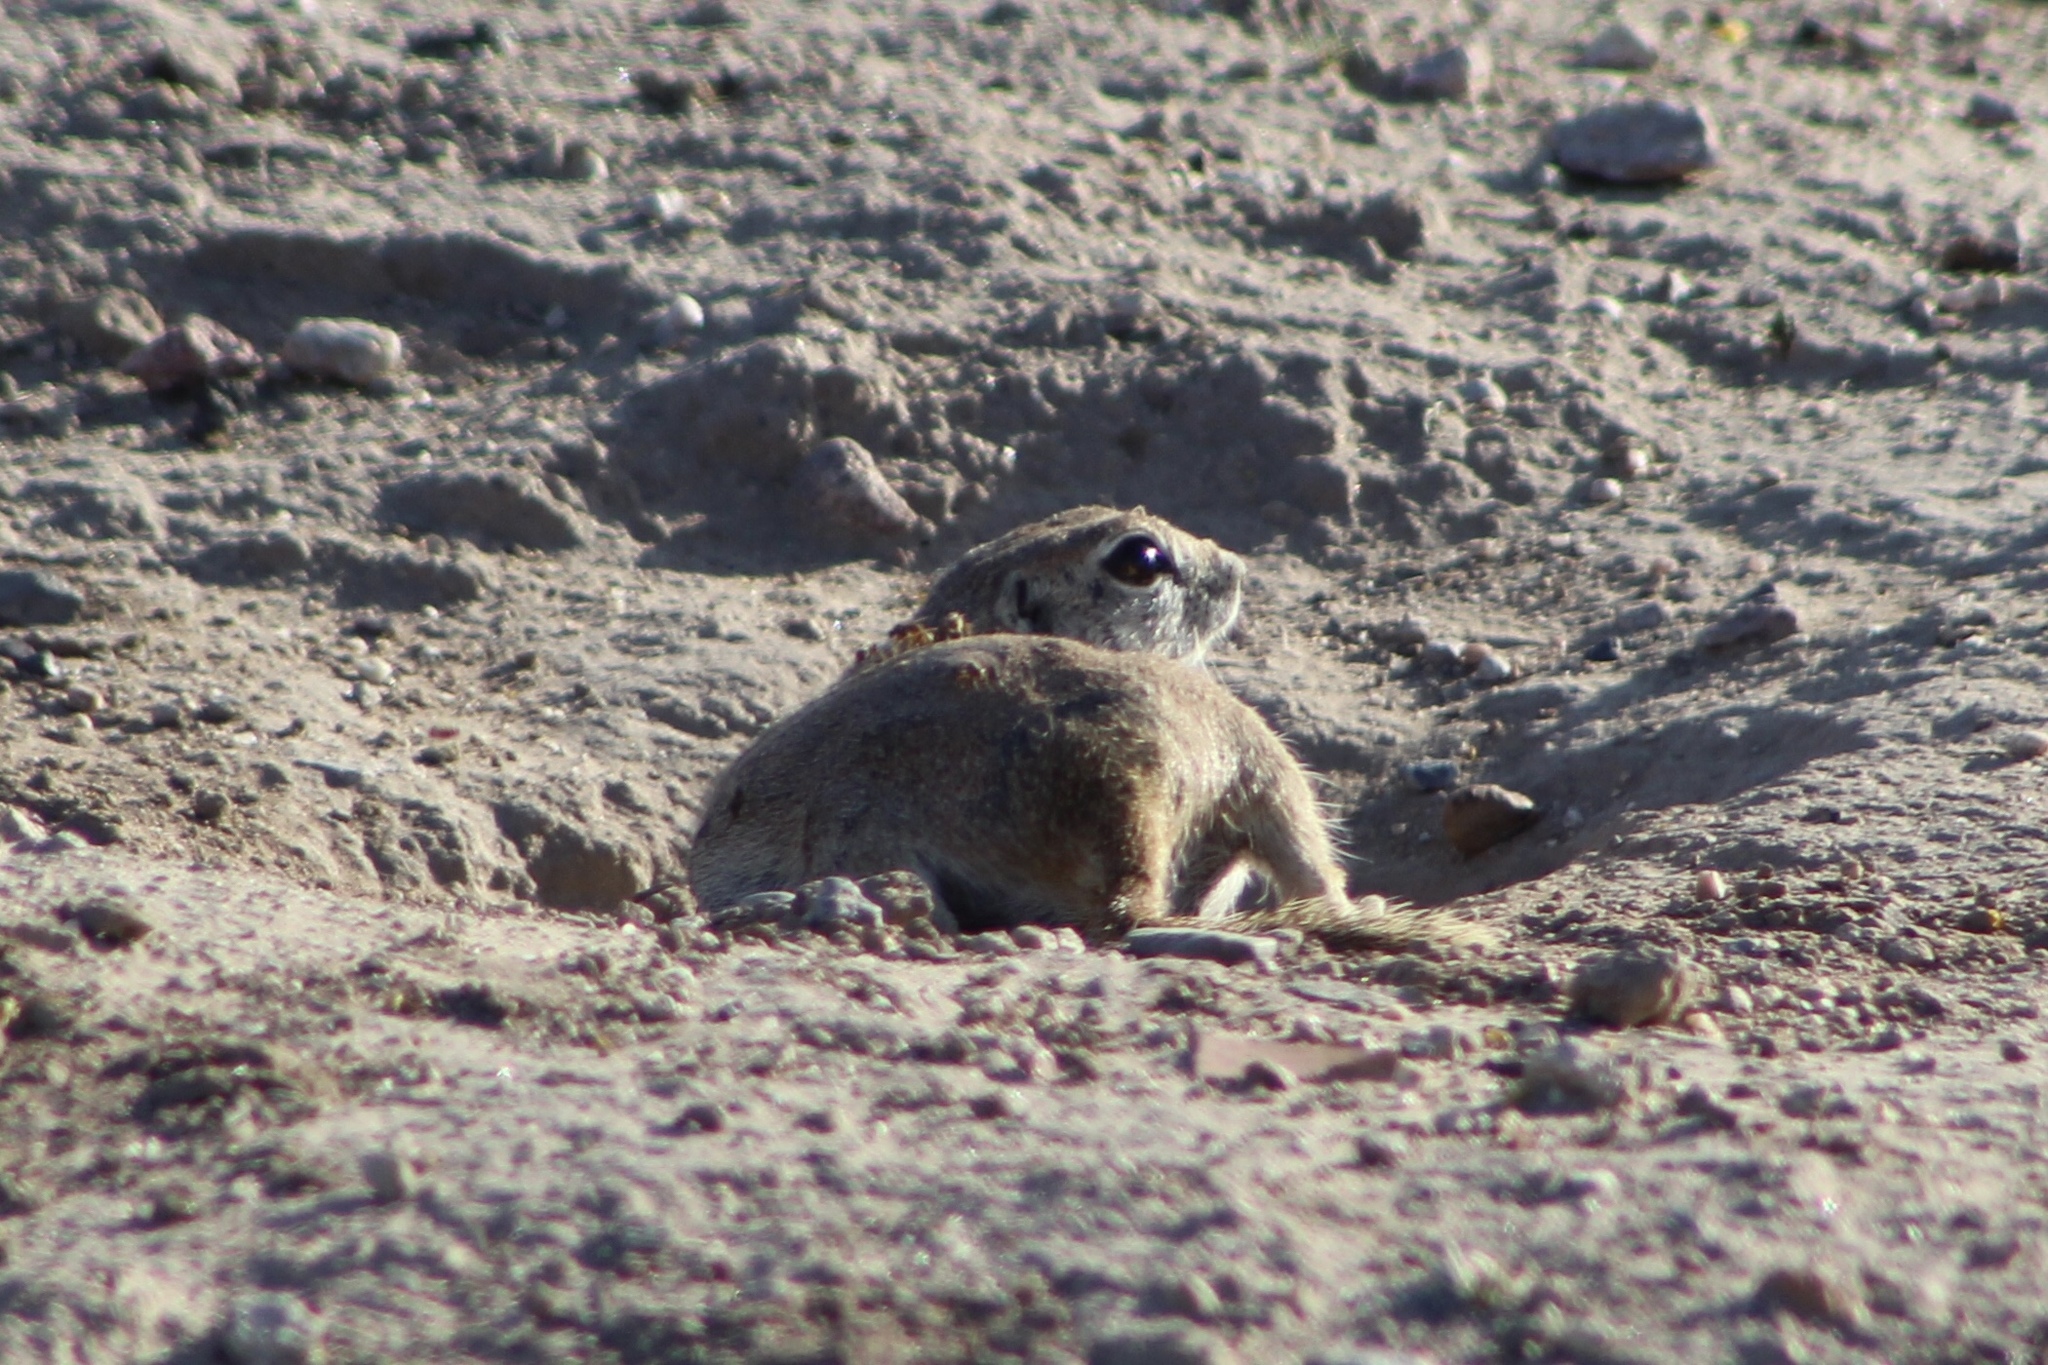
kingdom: Animalia
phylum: Chordata
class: Mammalia
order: Rodentia
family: Sciuridae
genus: Xerospermophilus
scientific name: Xerospermophilus tereticaudus
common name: Round-tailed ground squirrel
